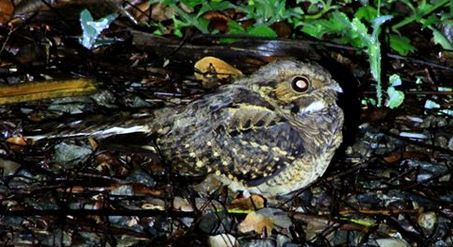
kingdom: Animalia
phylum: Chordata
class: Aves
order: Caprimulgiformes
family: Caprimulgidae
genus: Nyctidromus
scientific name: Nyctidromus albicollis
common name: Pauraque
